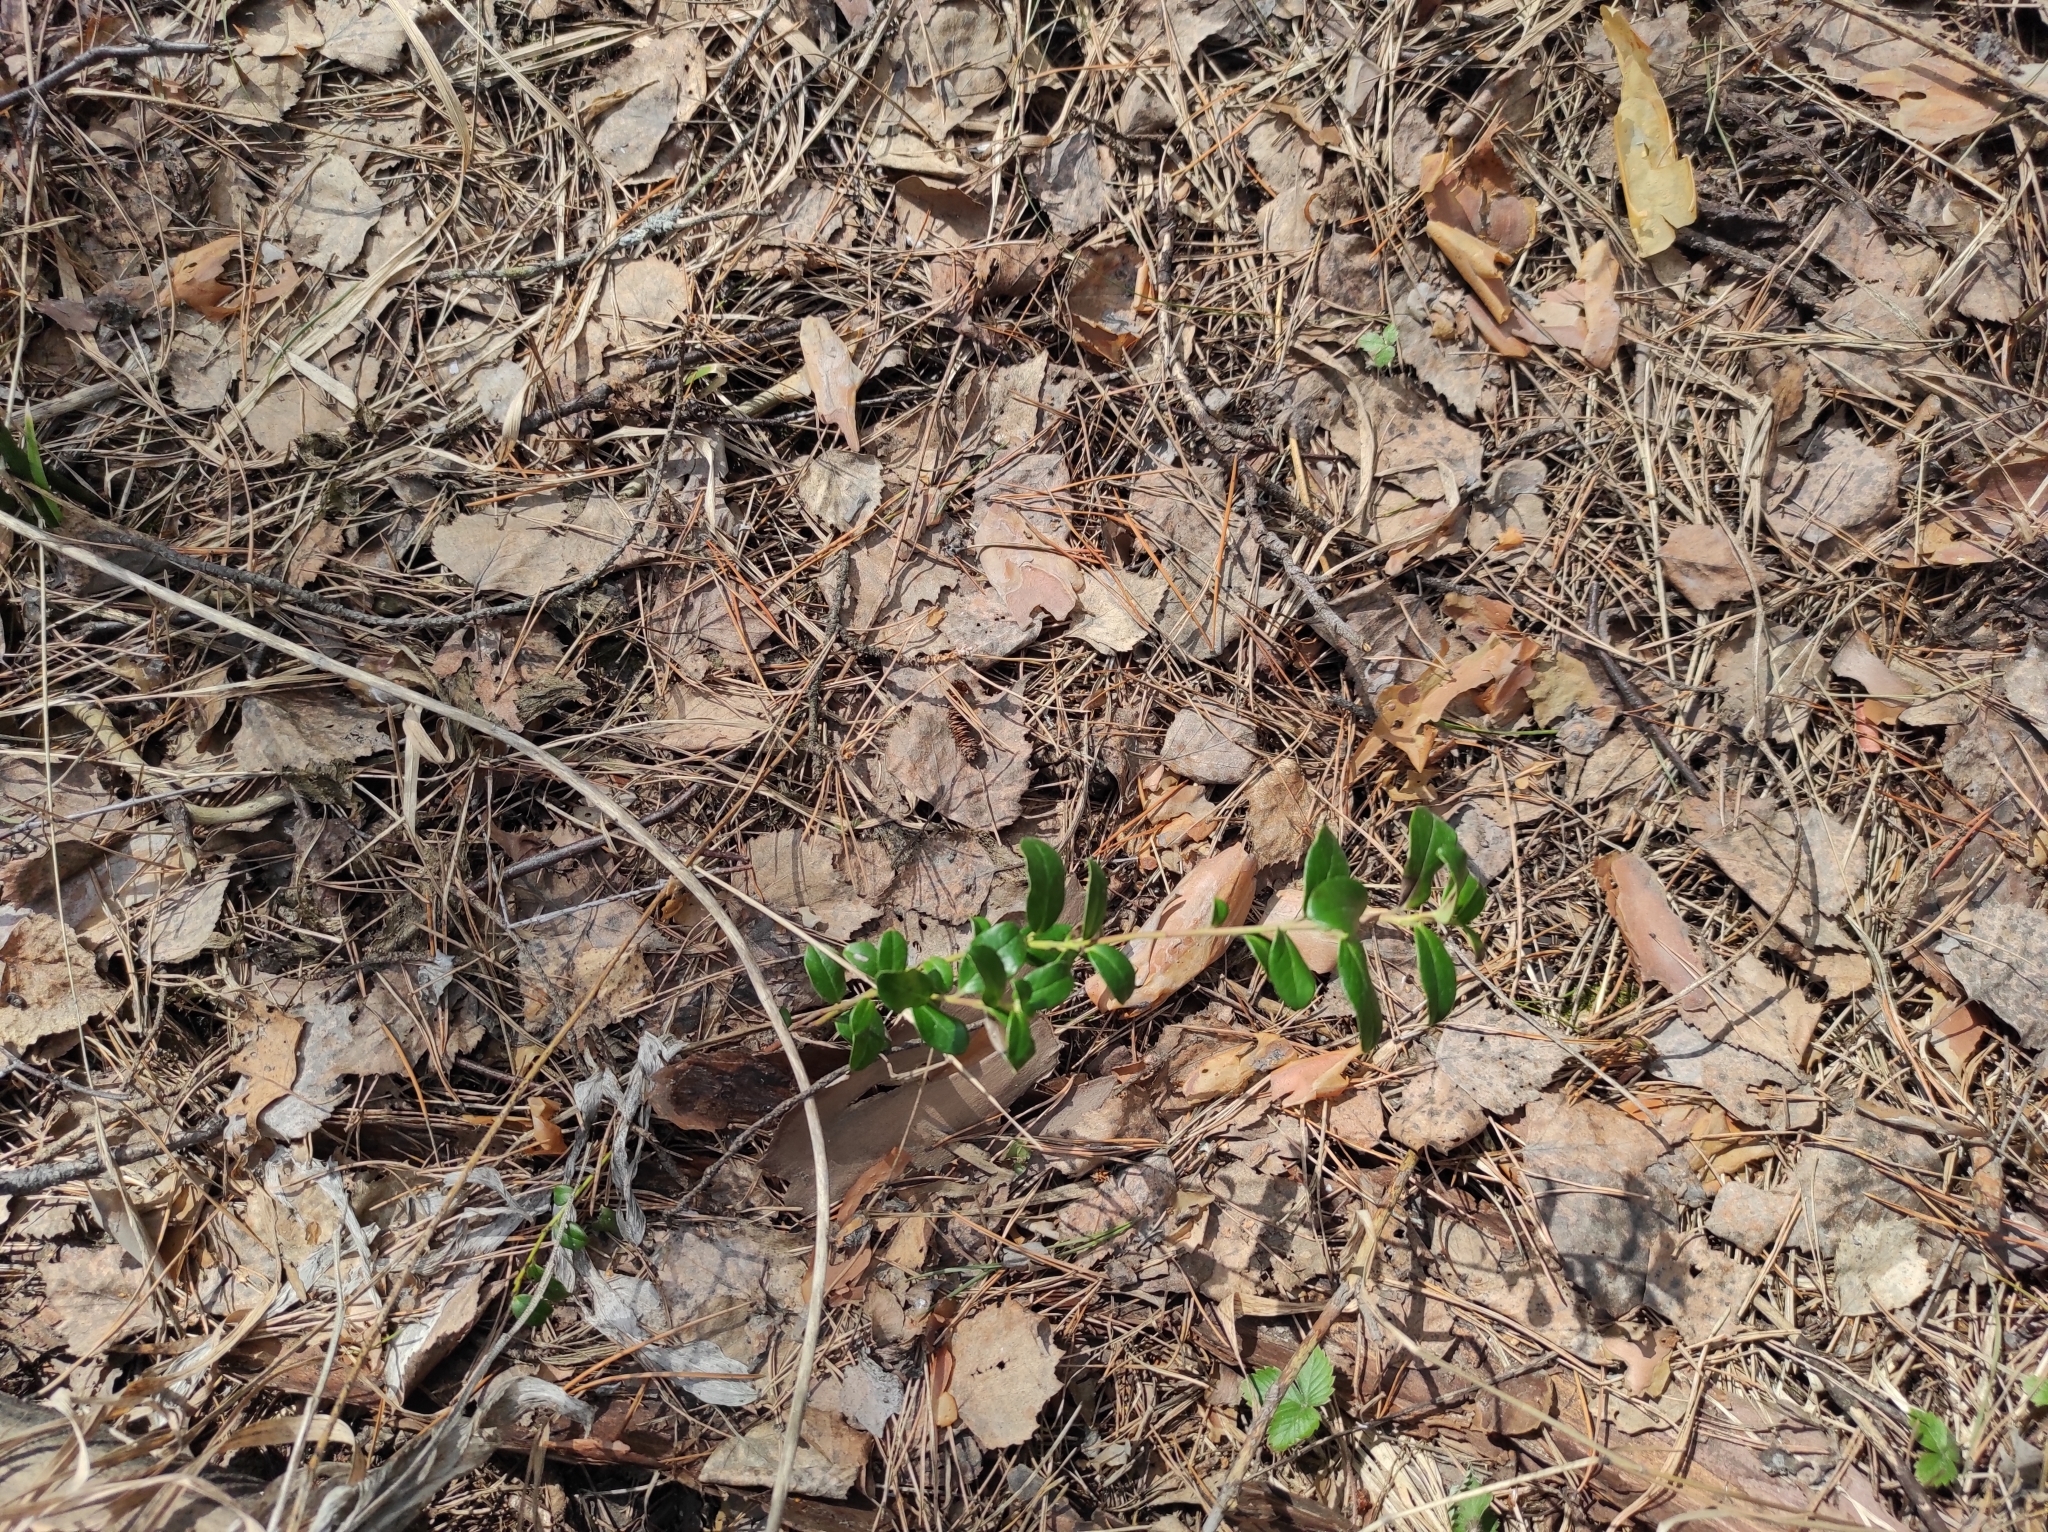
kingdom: Plantae
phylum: Tracheophyta
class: Magnoliopsida
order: Ericales
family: Ericaceae
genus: Vaccinium
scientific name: Vaccinium vitis-idaea
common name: Cowberry
